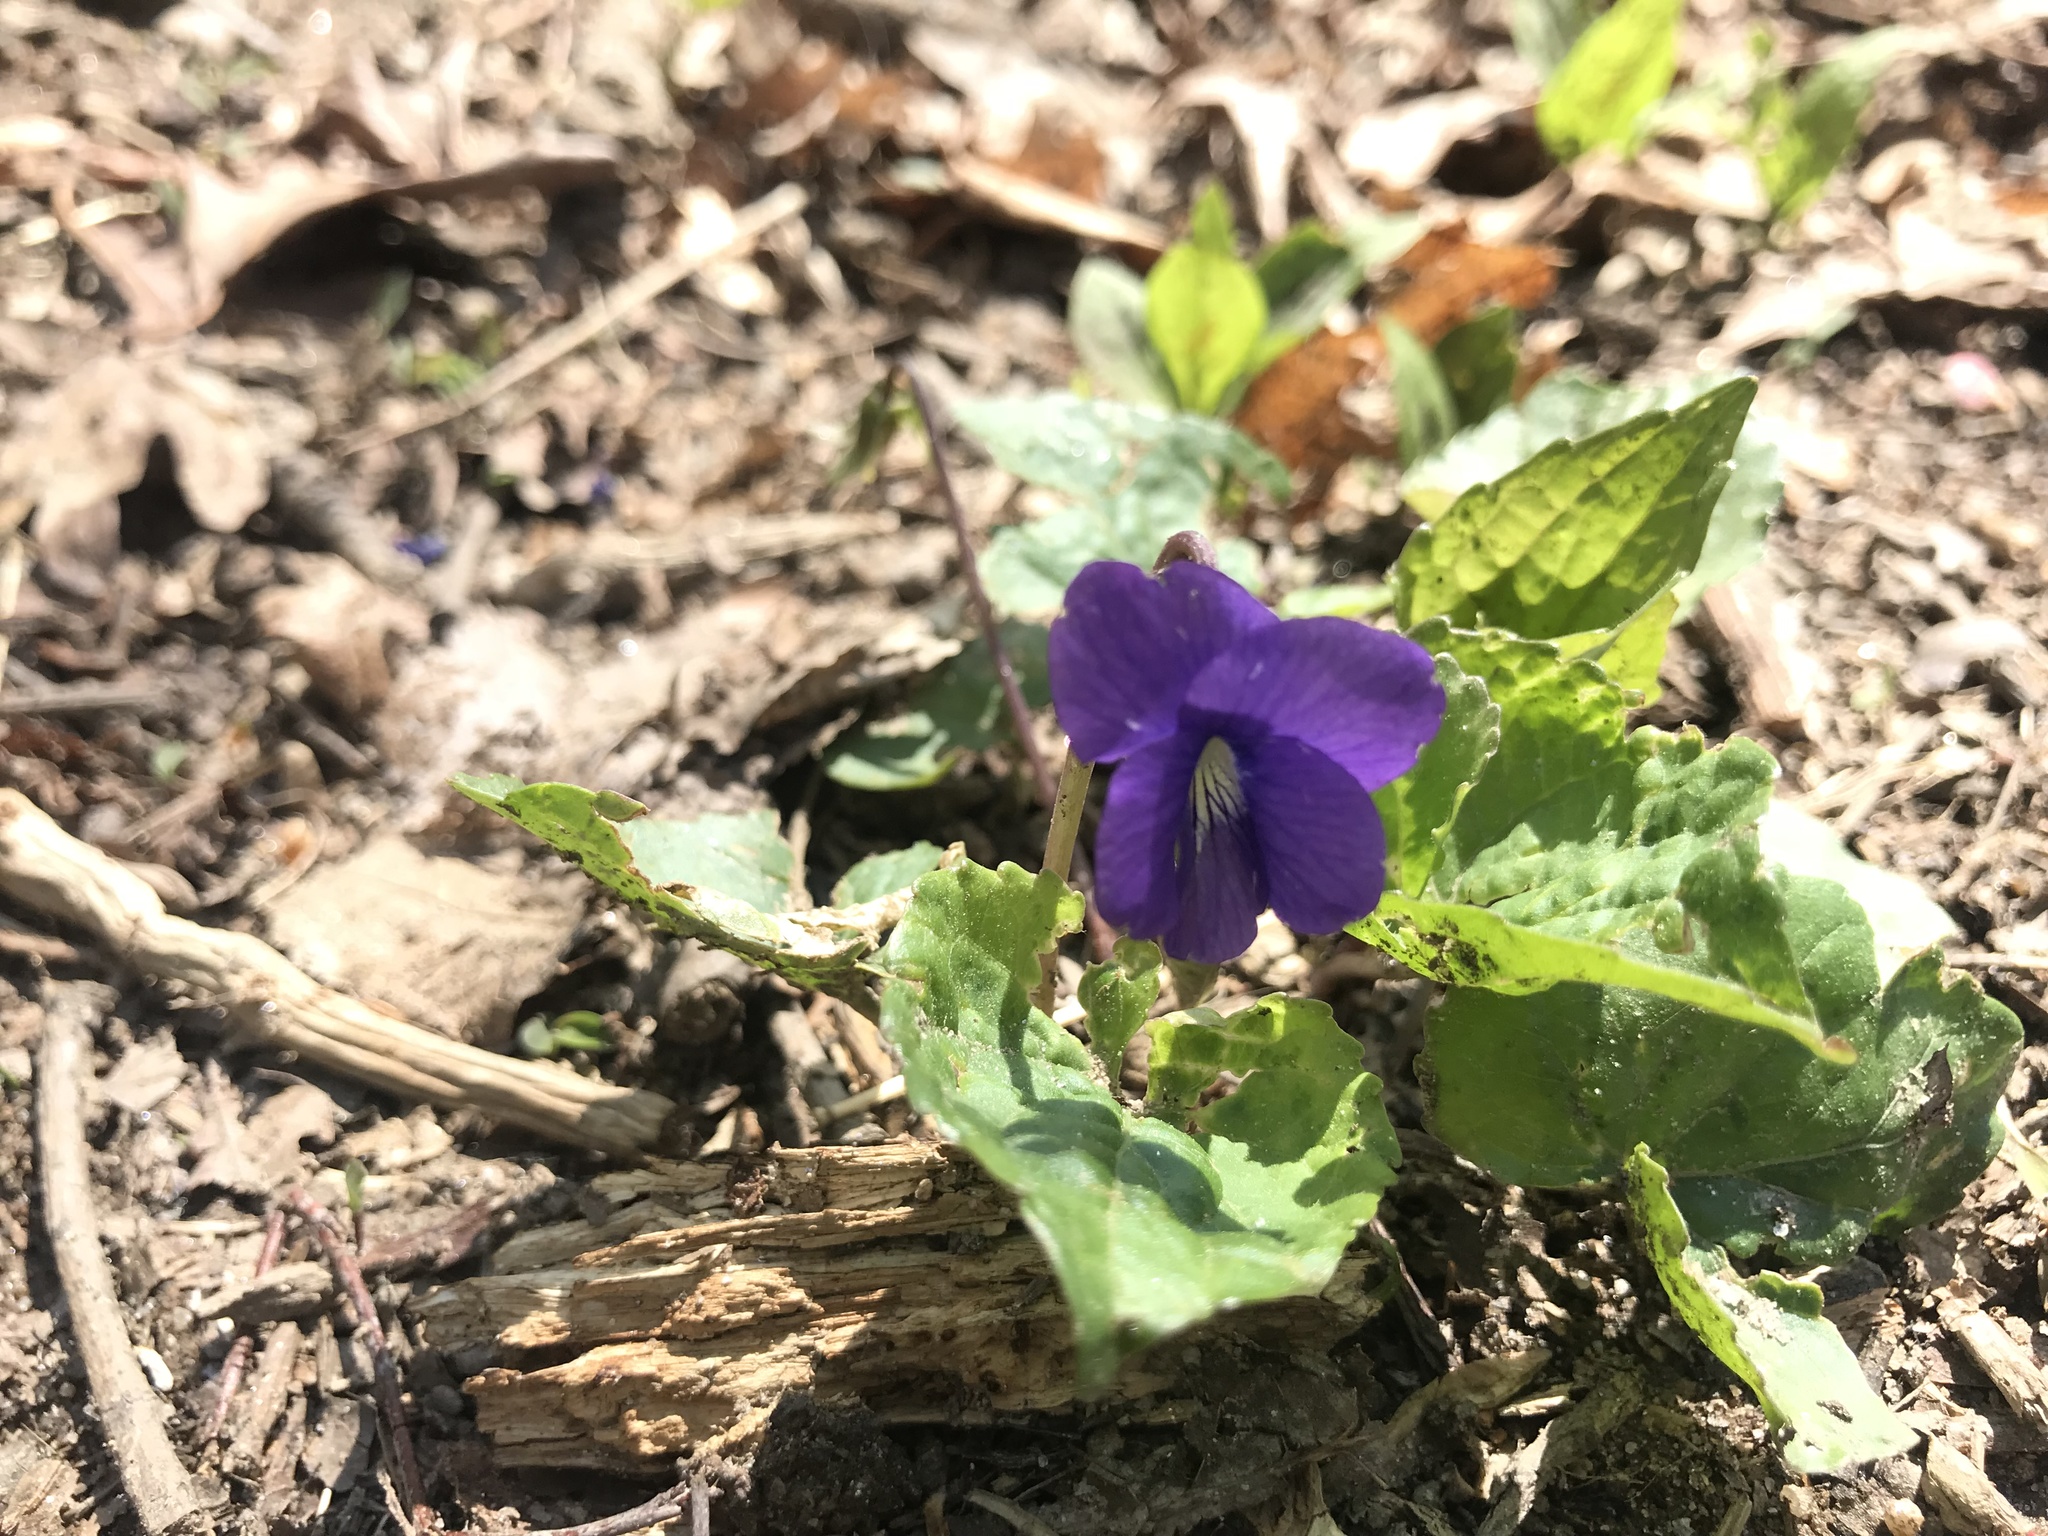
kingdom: Plantae
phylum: Tracheophyta
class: Magnoliopsida
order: Malpighiales
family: Violaceae
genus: Viola
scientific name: Viola sororia
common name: Dooryard violet
